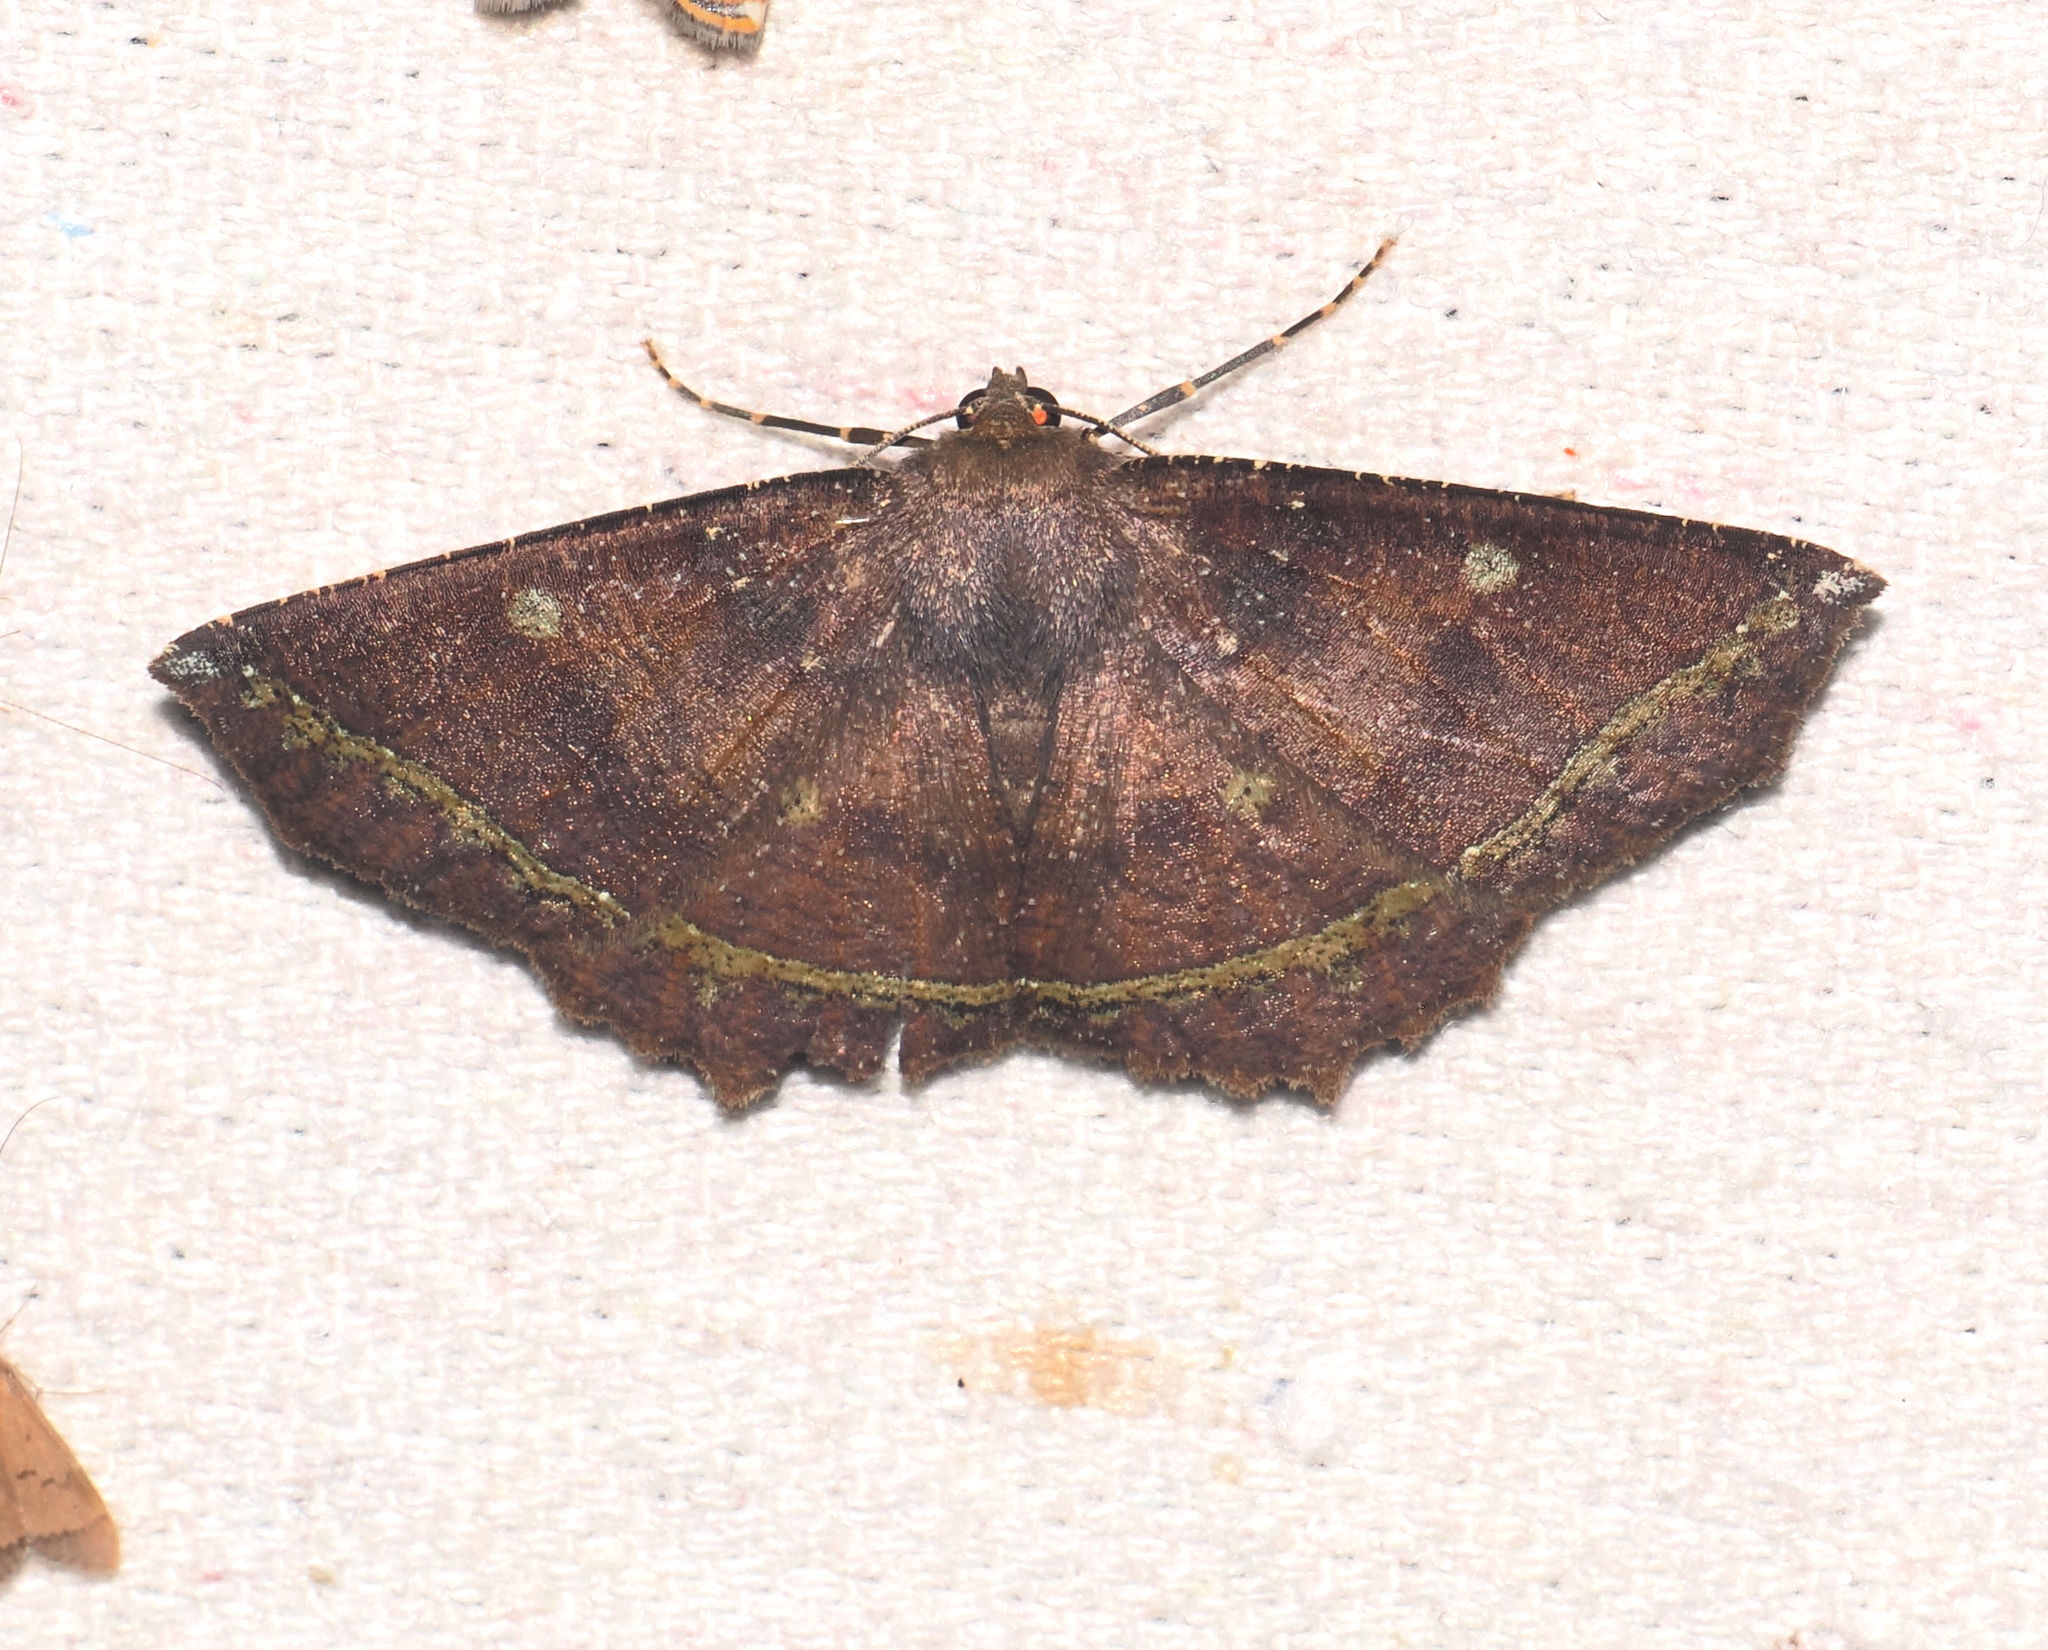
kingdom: Animalia
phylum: Arthropoda
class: Insecta
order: Lepidoptera
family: Geometridae
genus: Synnomos
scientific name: Synnomos firmamentaria
